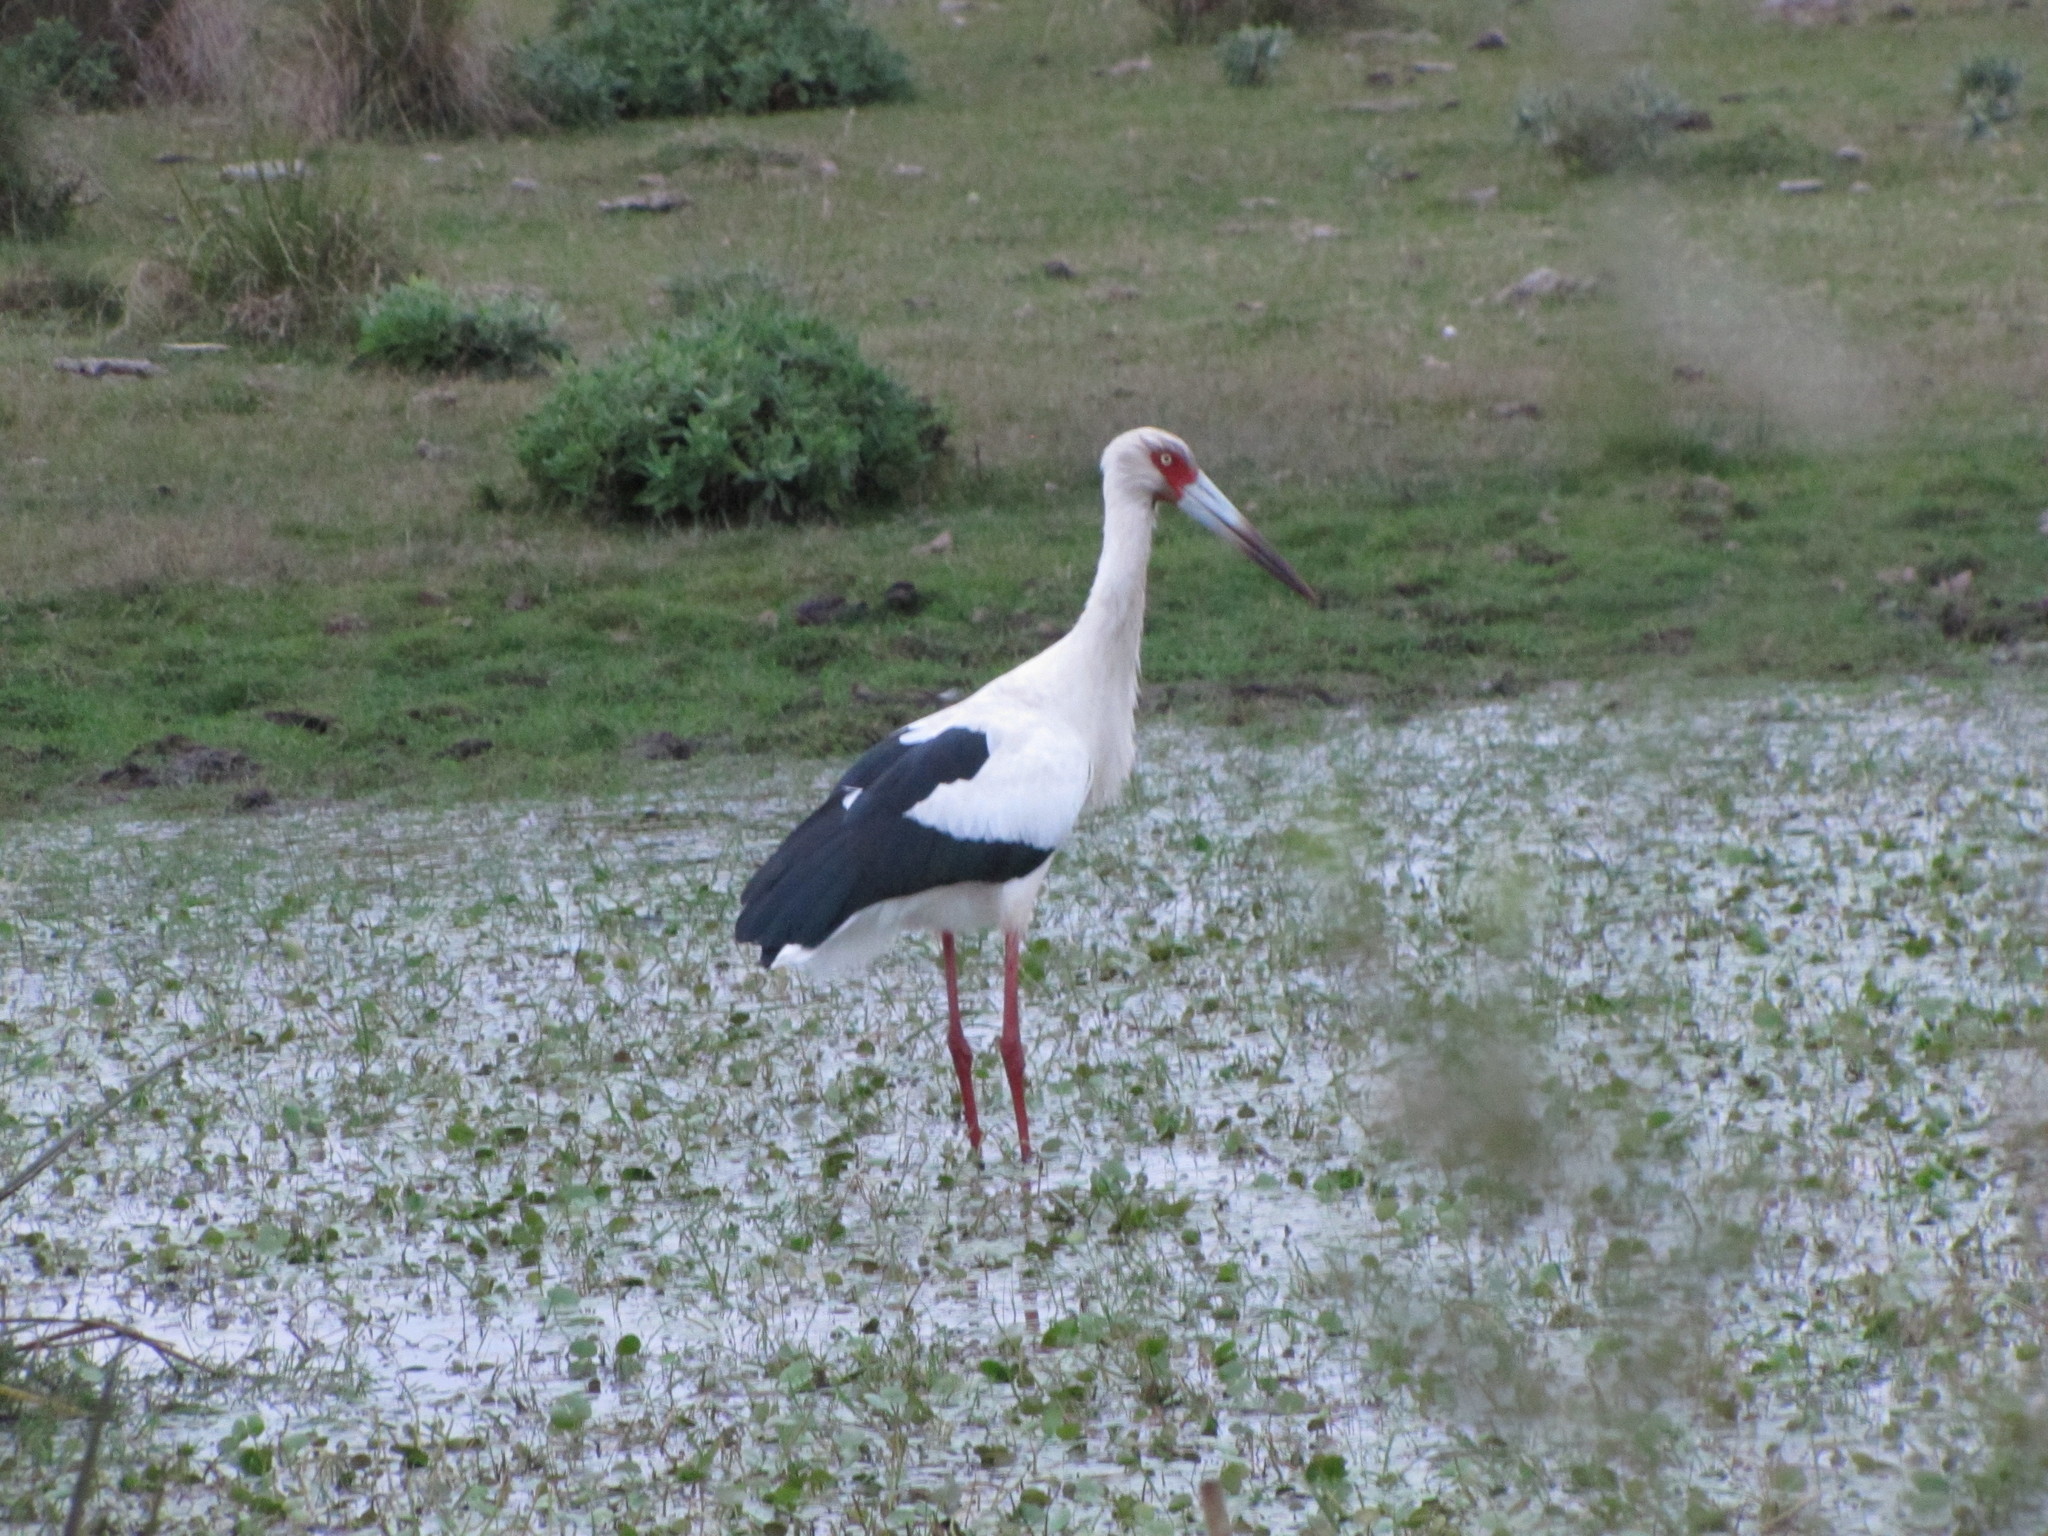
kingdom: Animalia
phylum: Chordata
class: Aves
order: Ciconiiformes
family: Ciconiidae
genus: Ciconia
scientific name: Ciconia maguari
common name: Maguari stork
